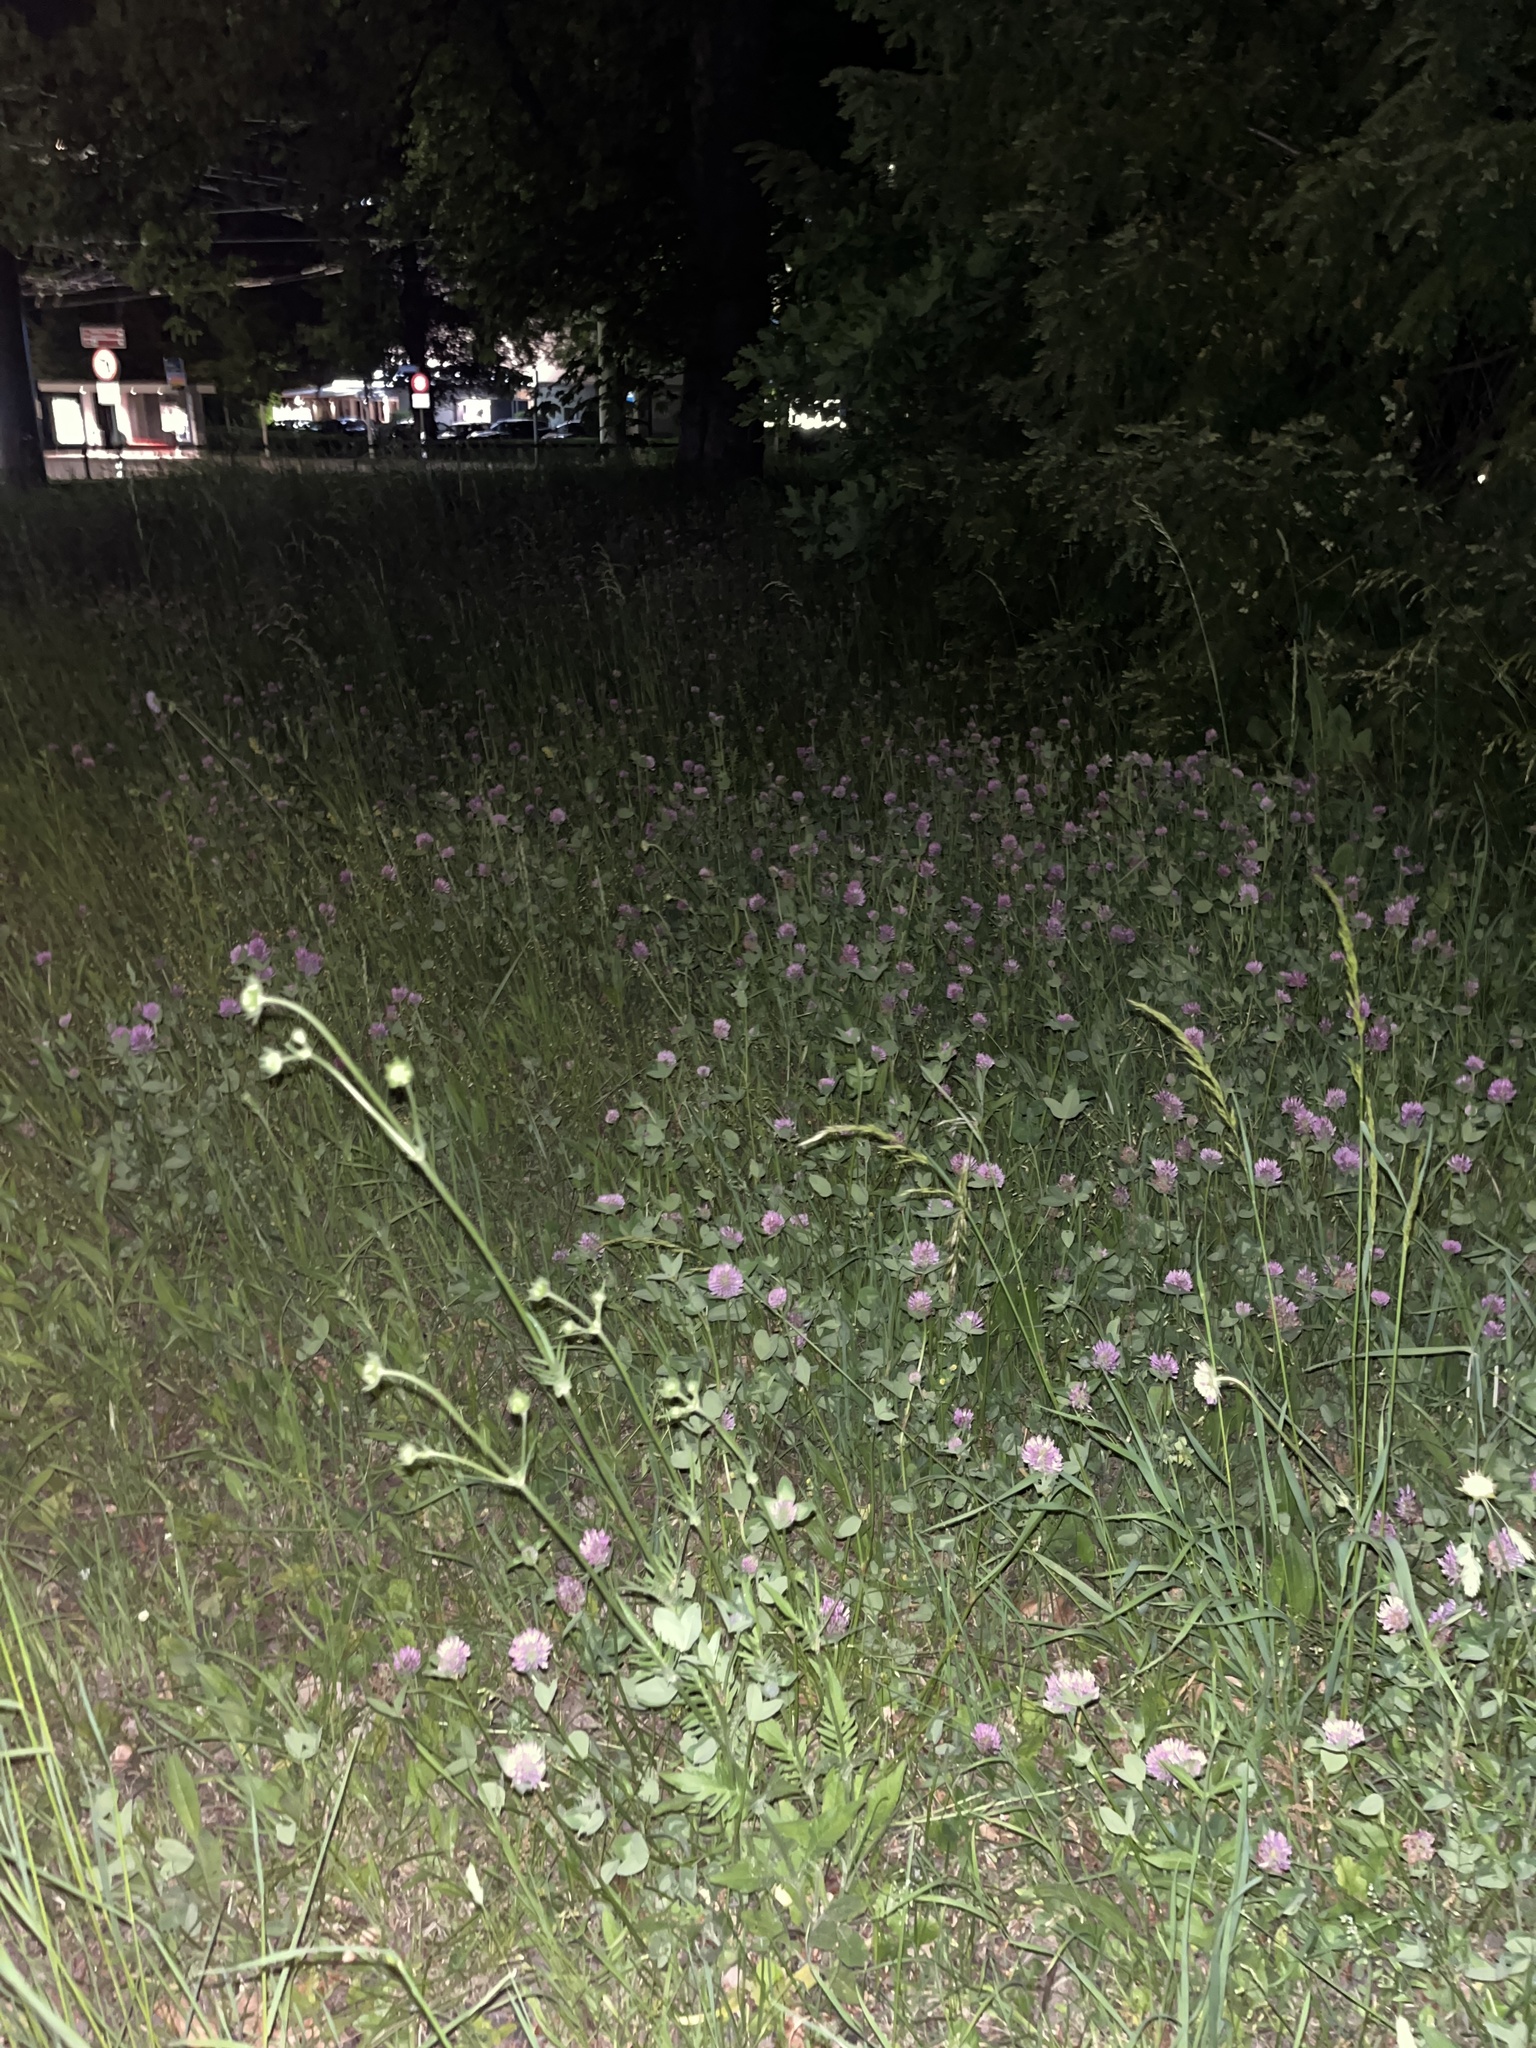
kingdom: Plantae
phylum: Tracheophyta
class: Magnoliopsida
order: Fabales
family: Fabaceae
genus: Trifolium
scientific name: Trifolium pratense
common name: Red clover
